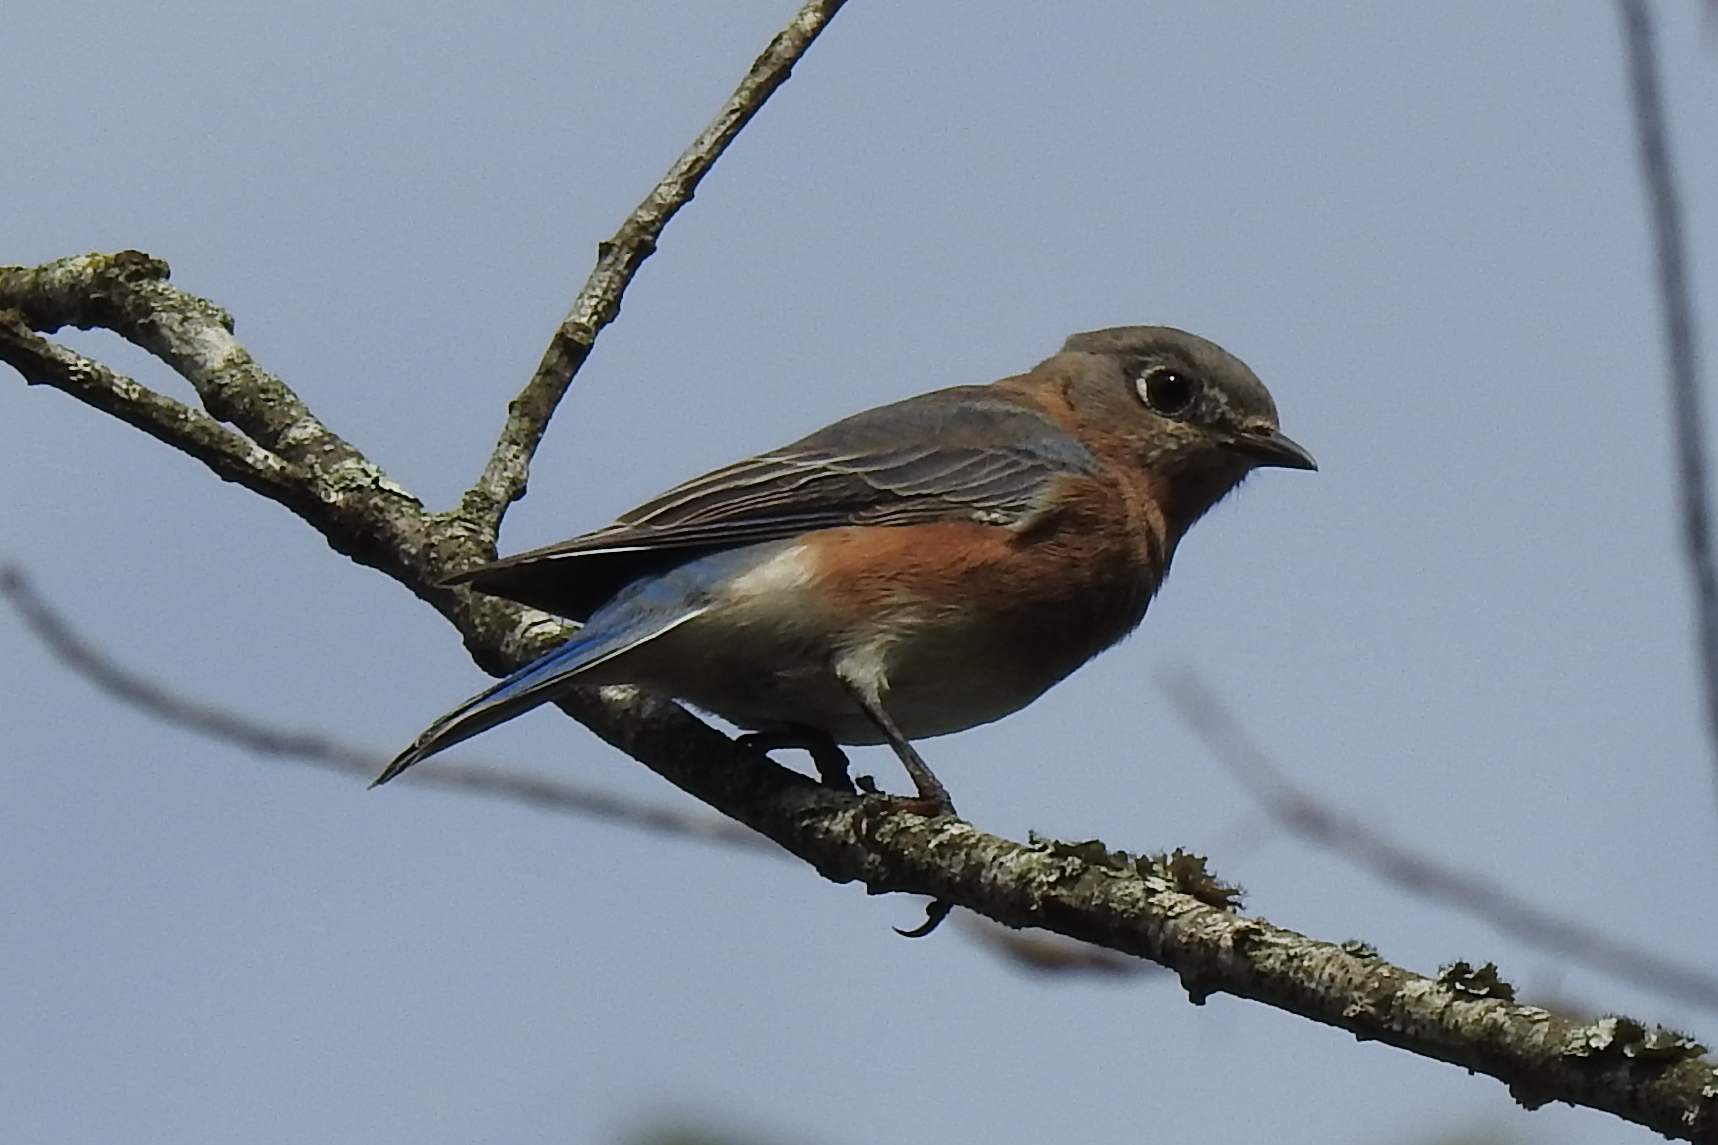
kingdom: Animalia
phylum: Chordata
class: Aves
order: Passeriformes
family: Turdidae
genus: Sialia
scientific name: Sialia sialis
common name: Eastern bluebird
